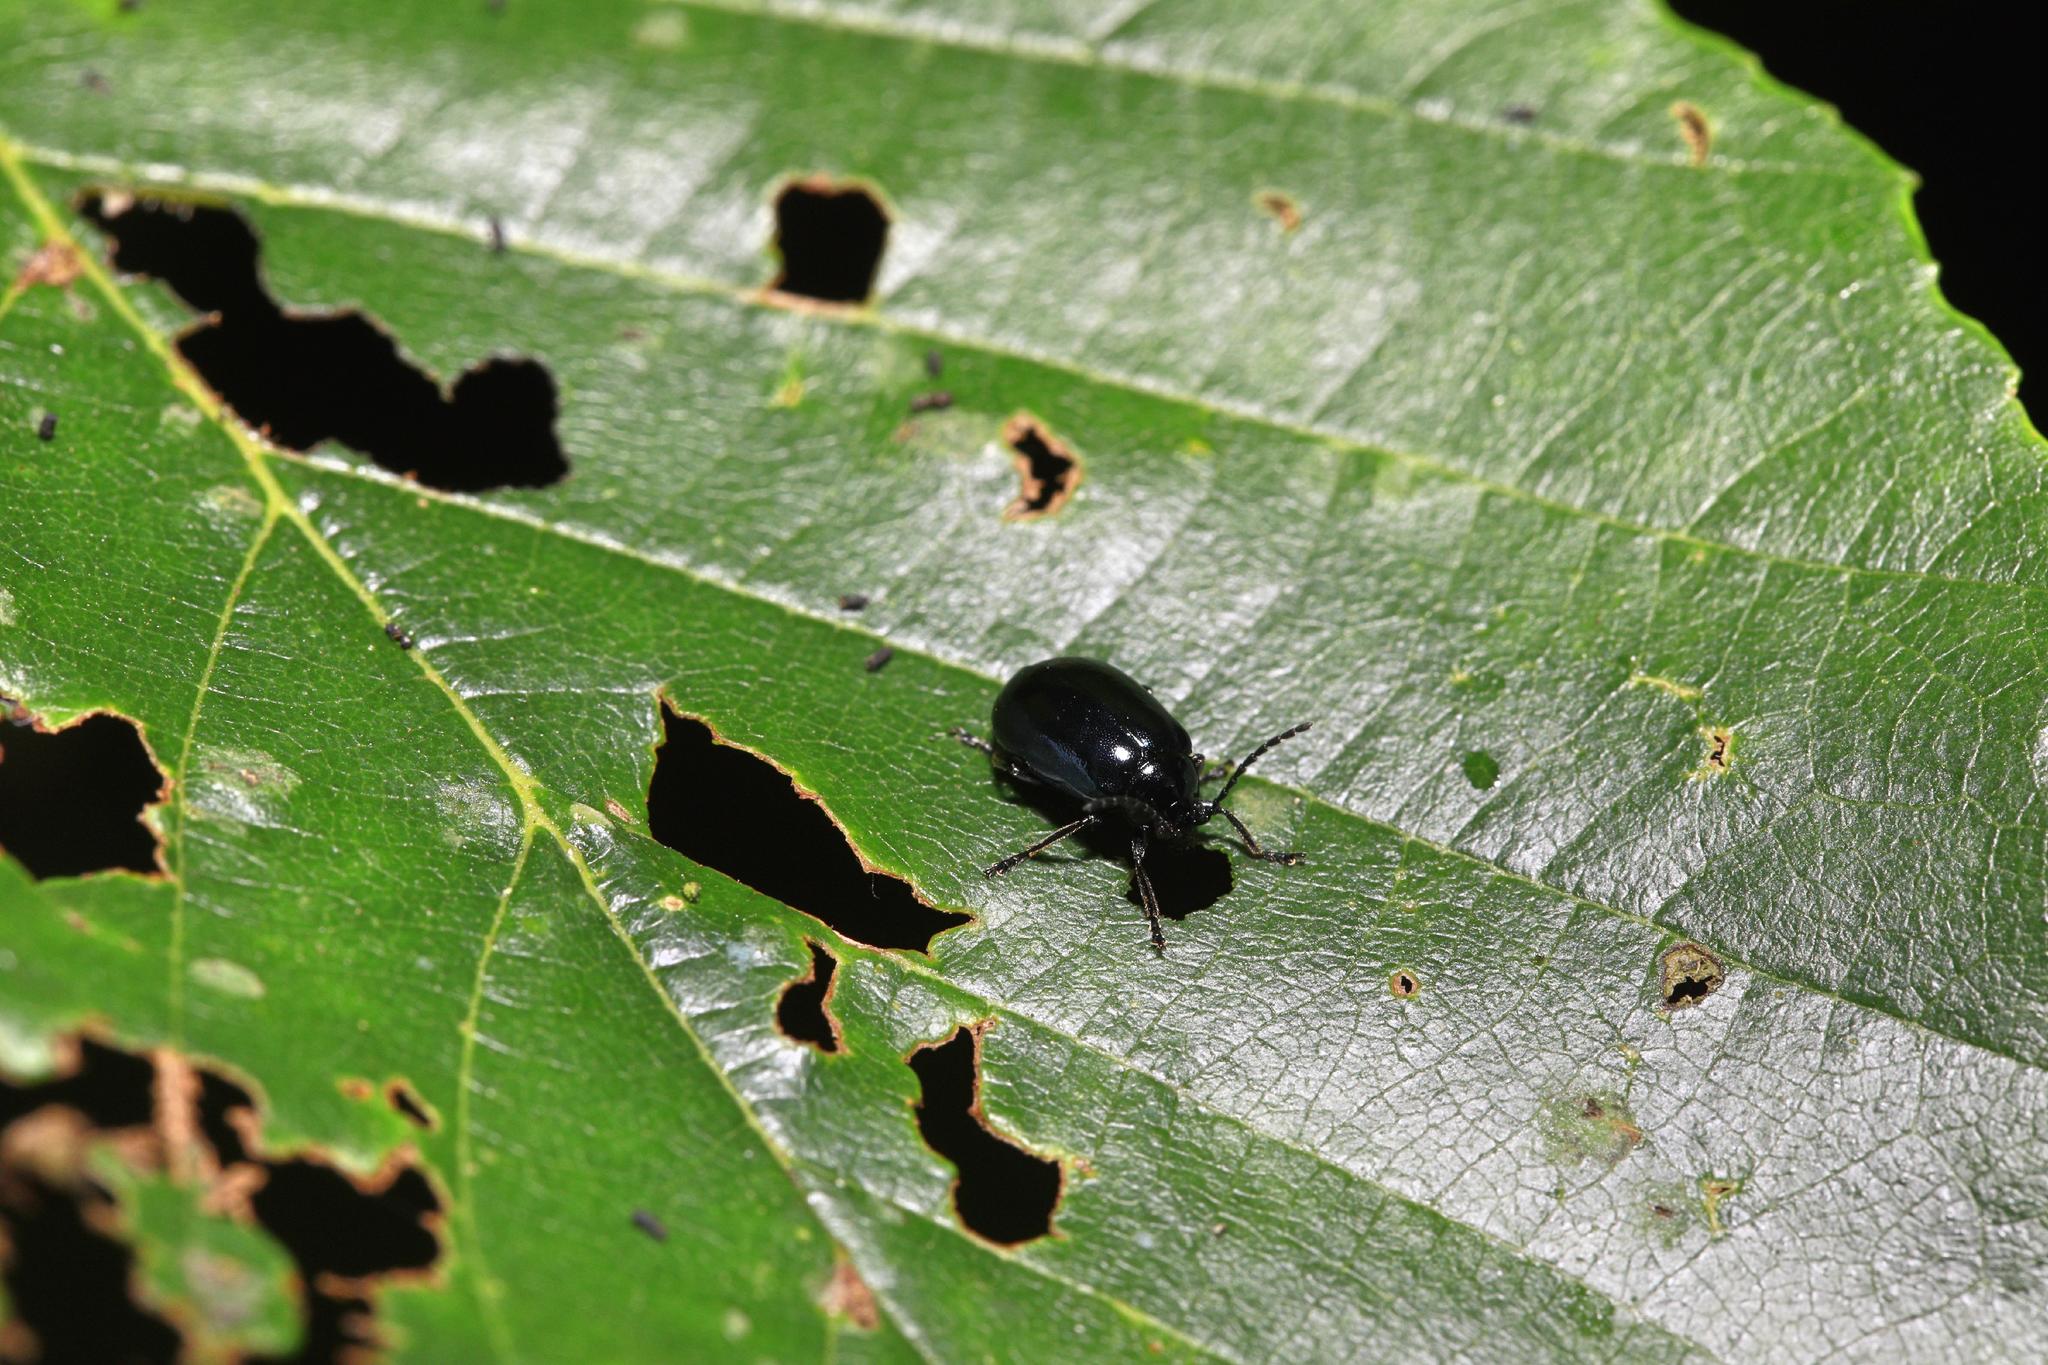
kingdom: Animalia
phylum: Arthropoda
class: Insecta
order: Coleoptera
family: Chrysomelidae
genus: Agelastica
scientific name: Agelastica alni
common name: Alder leaf beetle
